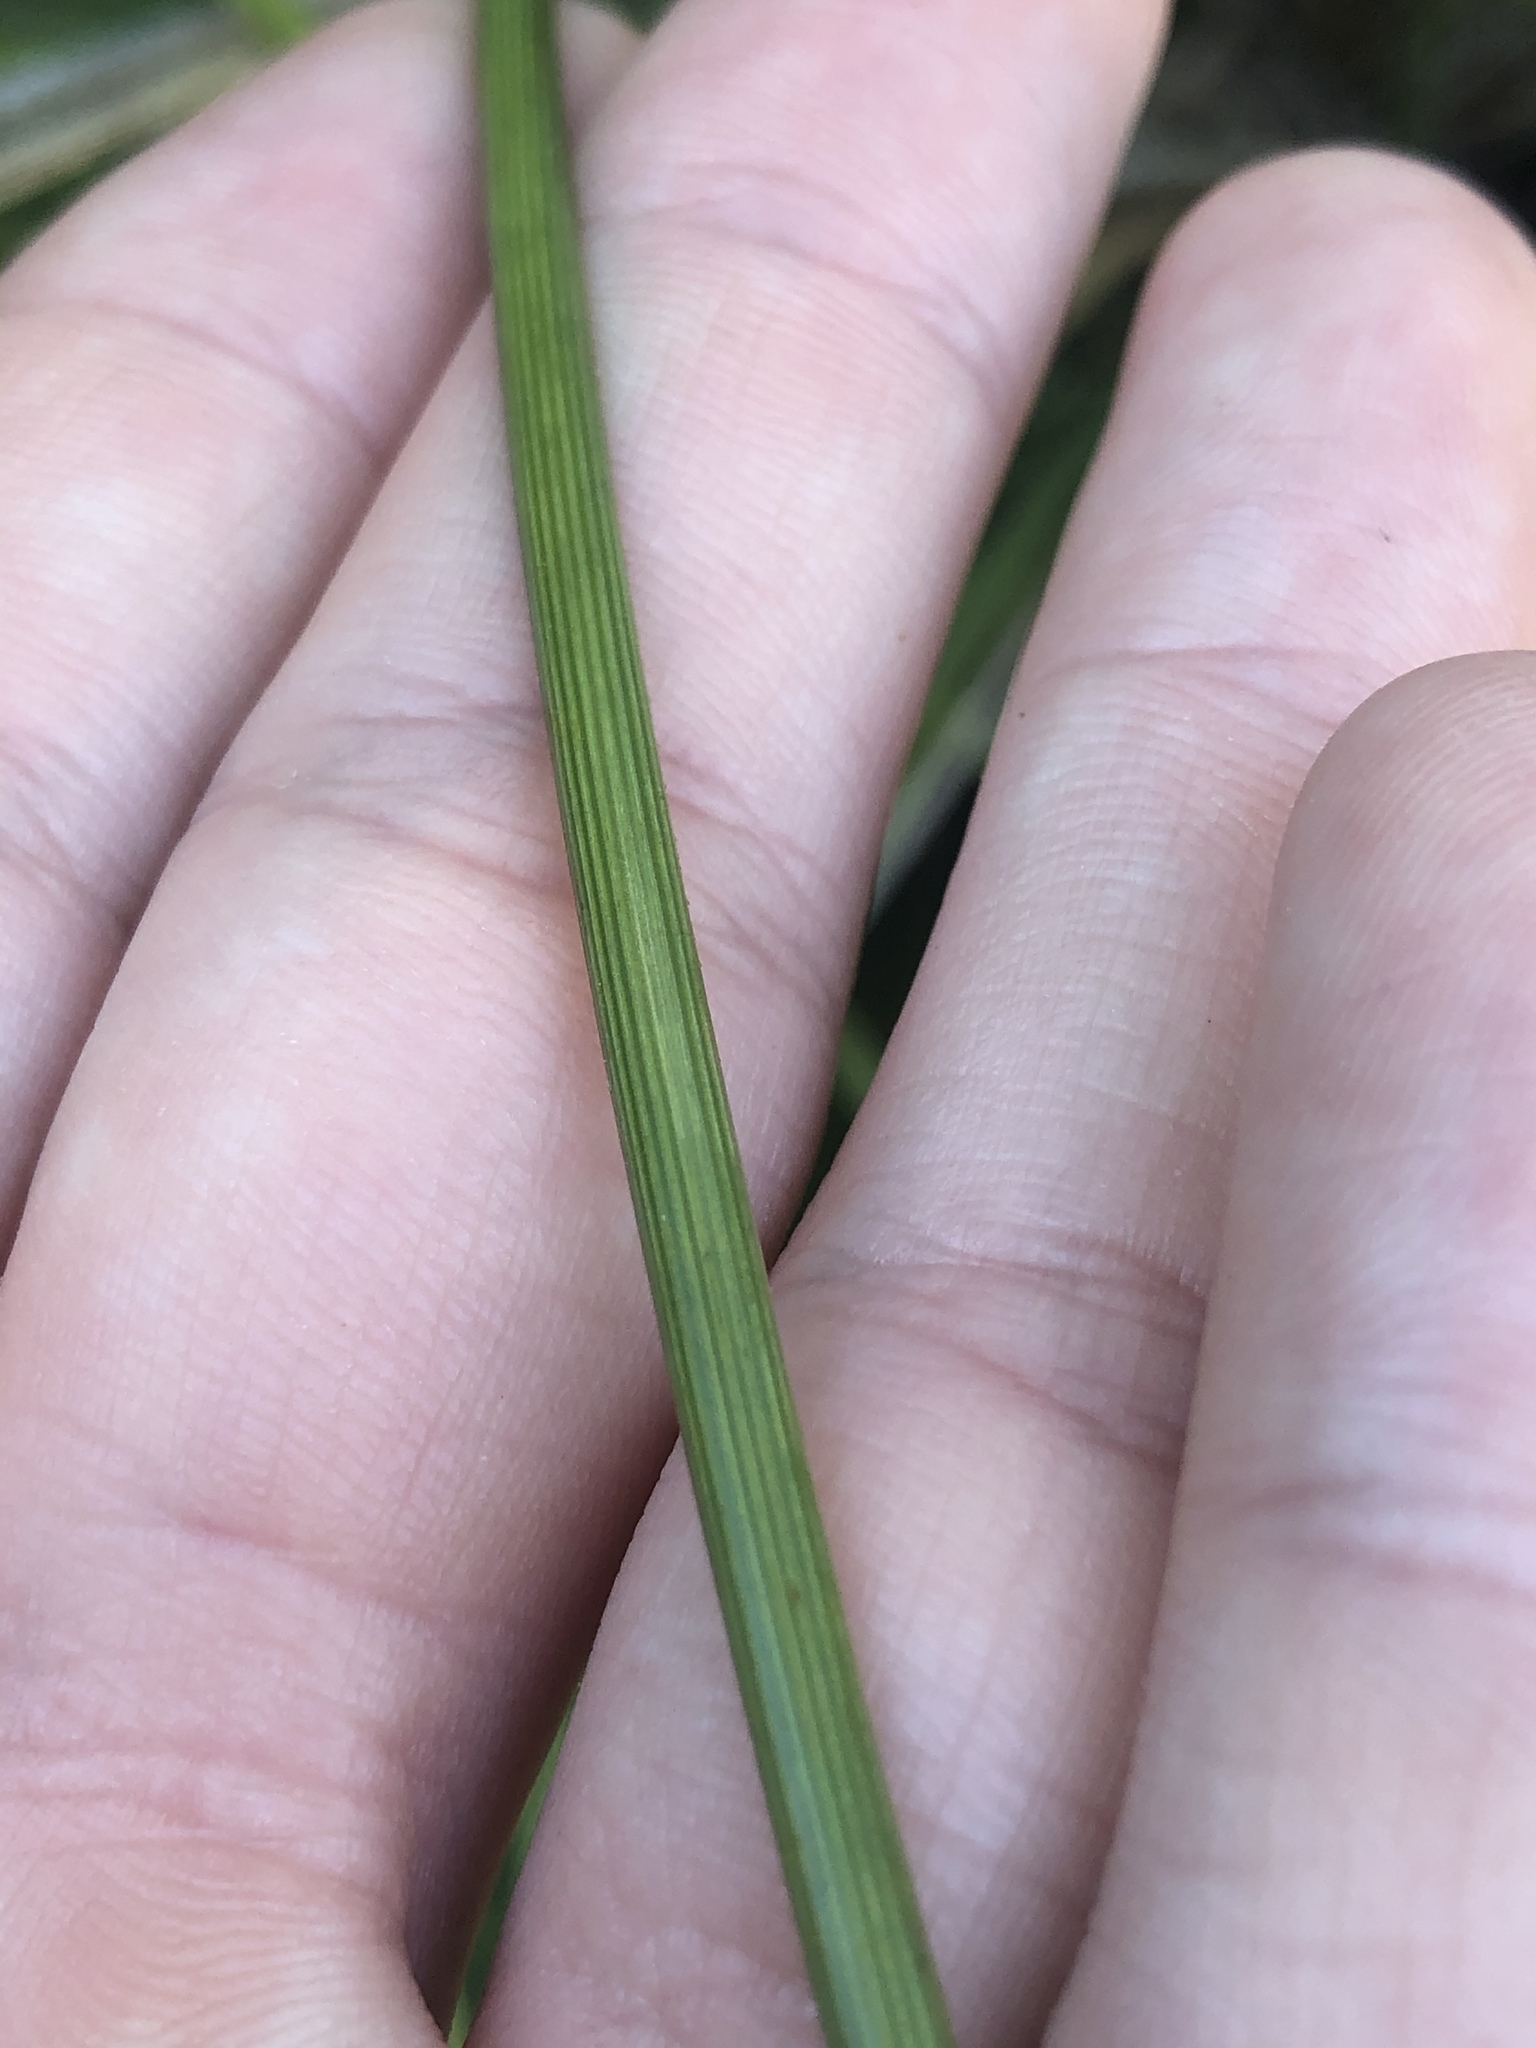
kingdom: Plantae
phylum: Tracheophyta
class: Liliopsida
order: Asparagales
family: Asparagaceae
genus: Nolina
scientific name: Nolina texana
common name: Texas sacahuiste
